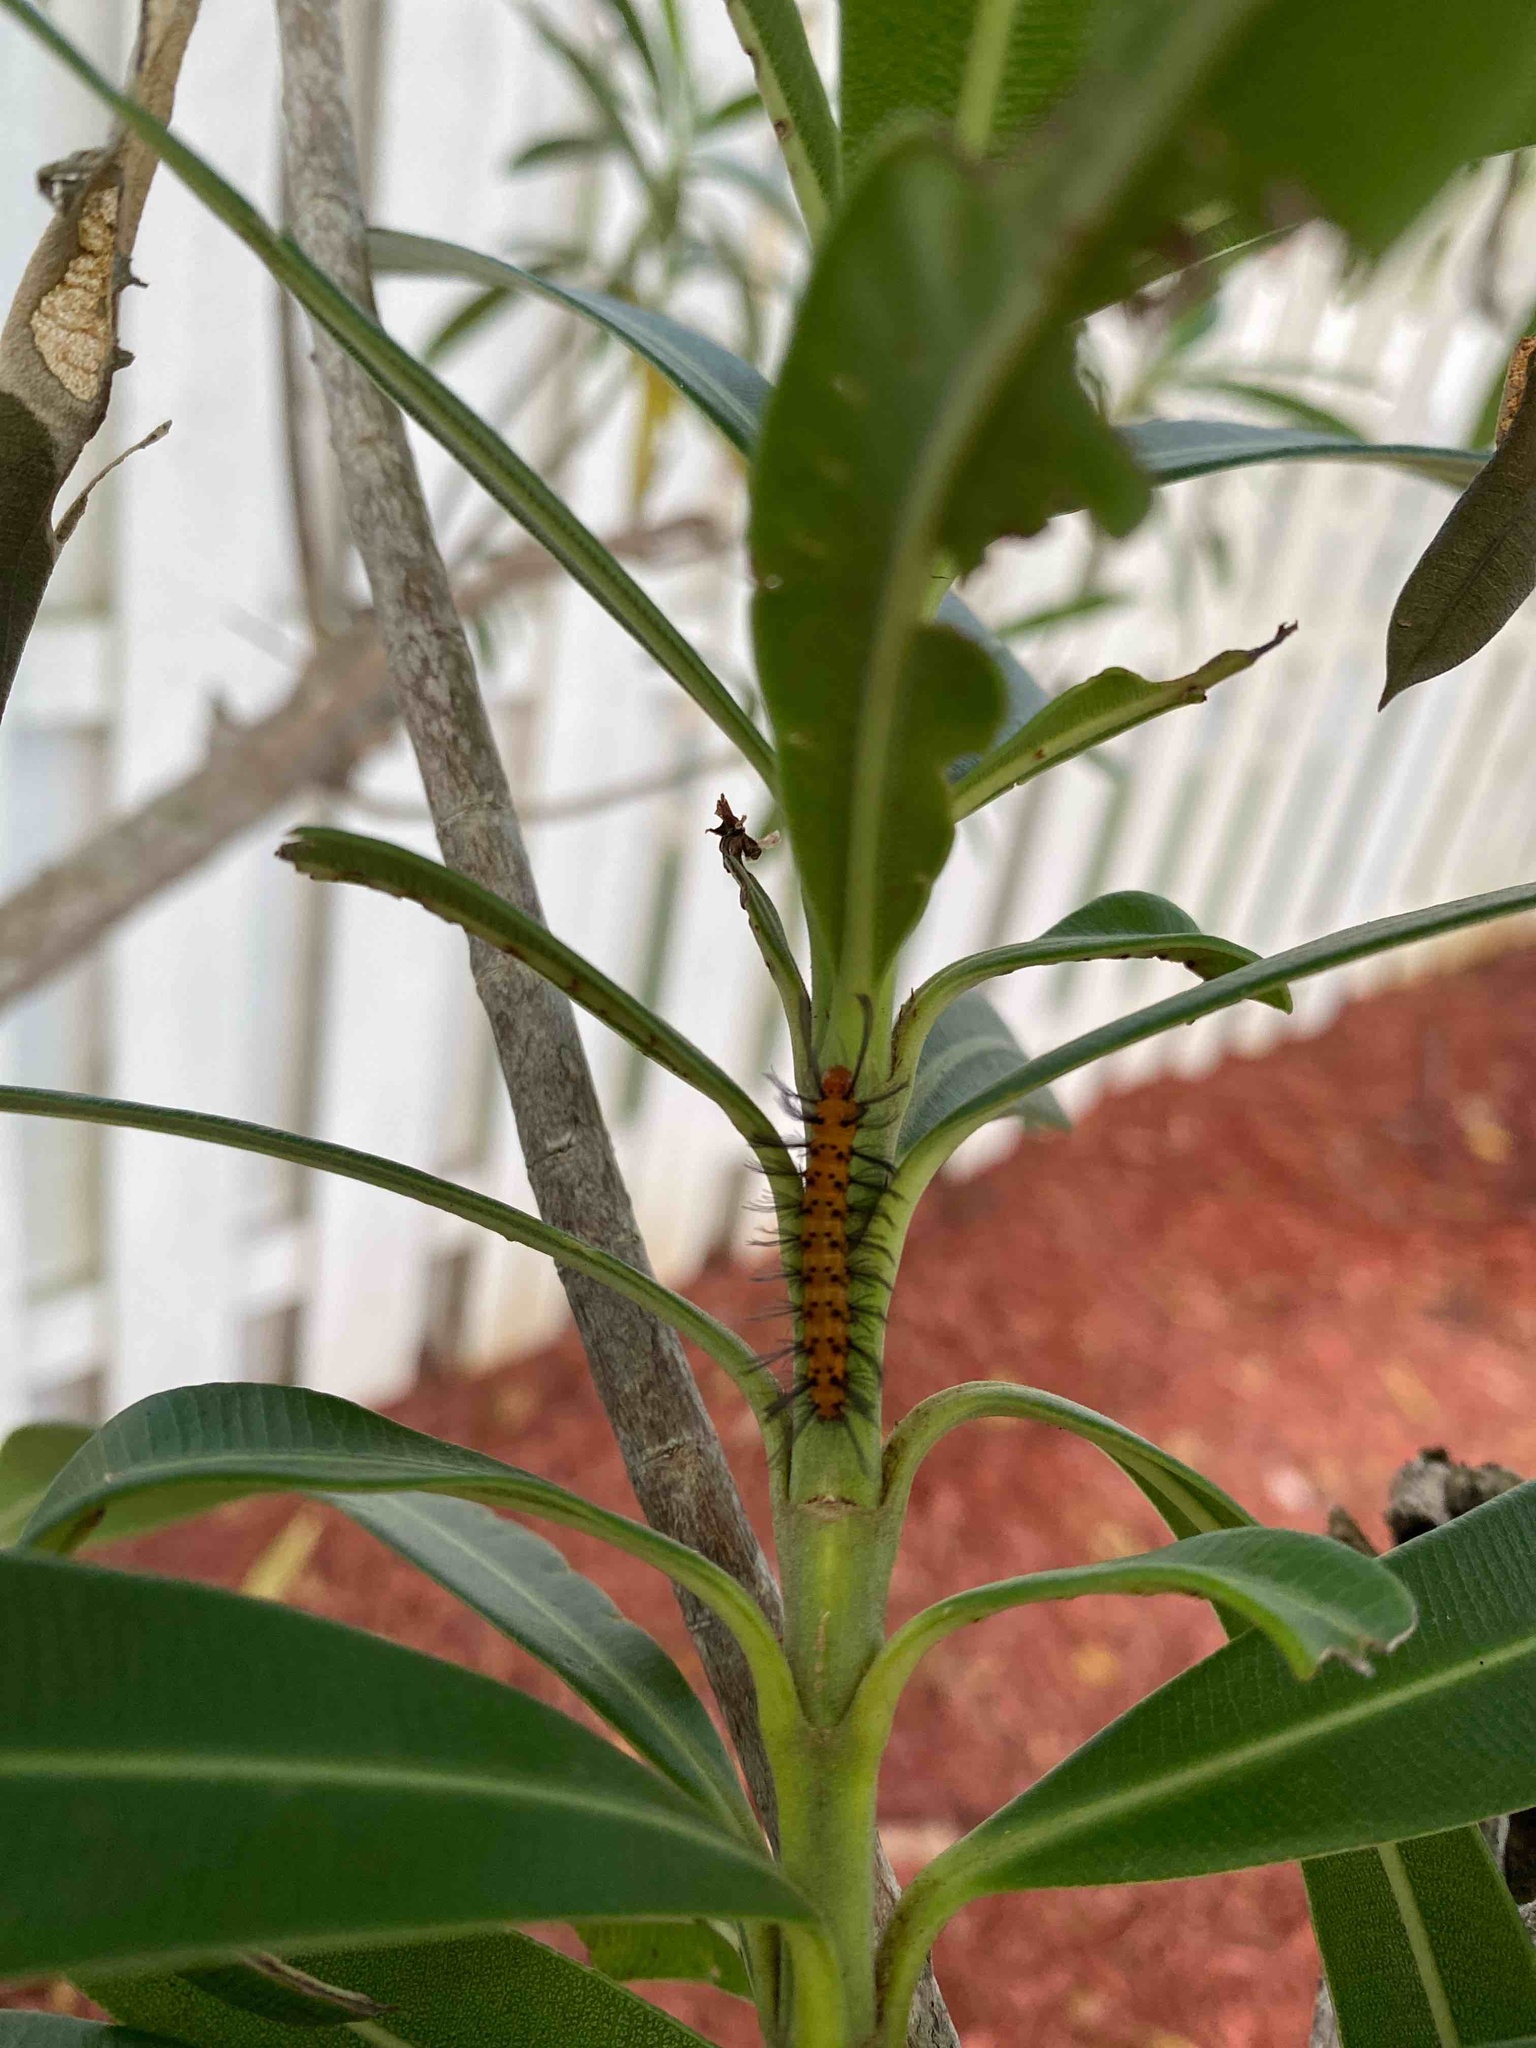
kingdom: Animalia
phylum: Arthropoda
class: Insecta
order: Lepidoptera
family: Erebidae
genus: Syntomeida
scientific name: Syntomeida epilais
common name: Polka-dot wasp moth
